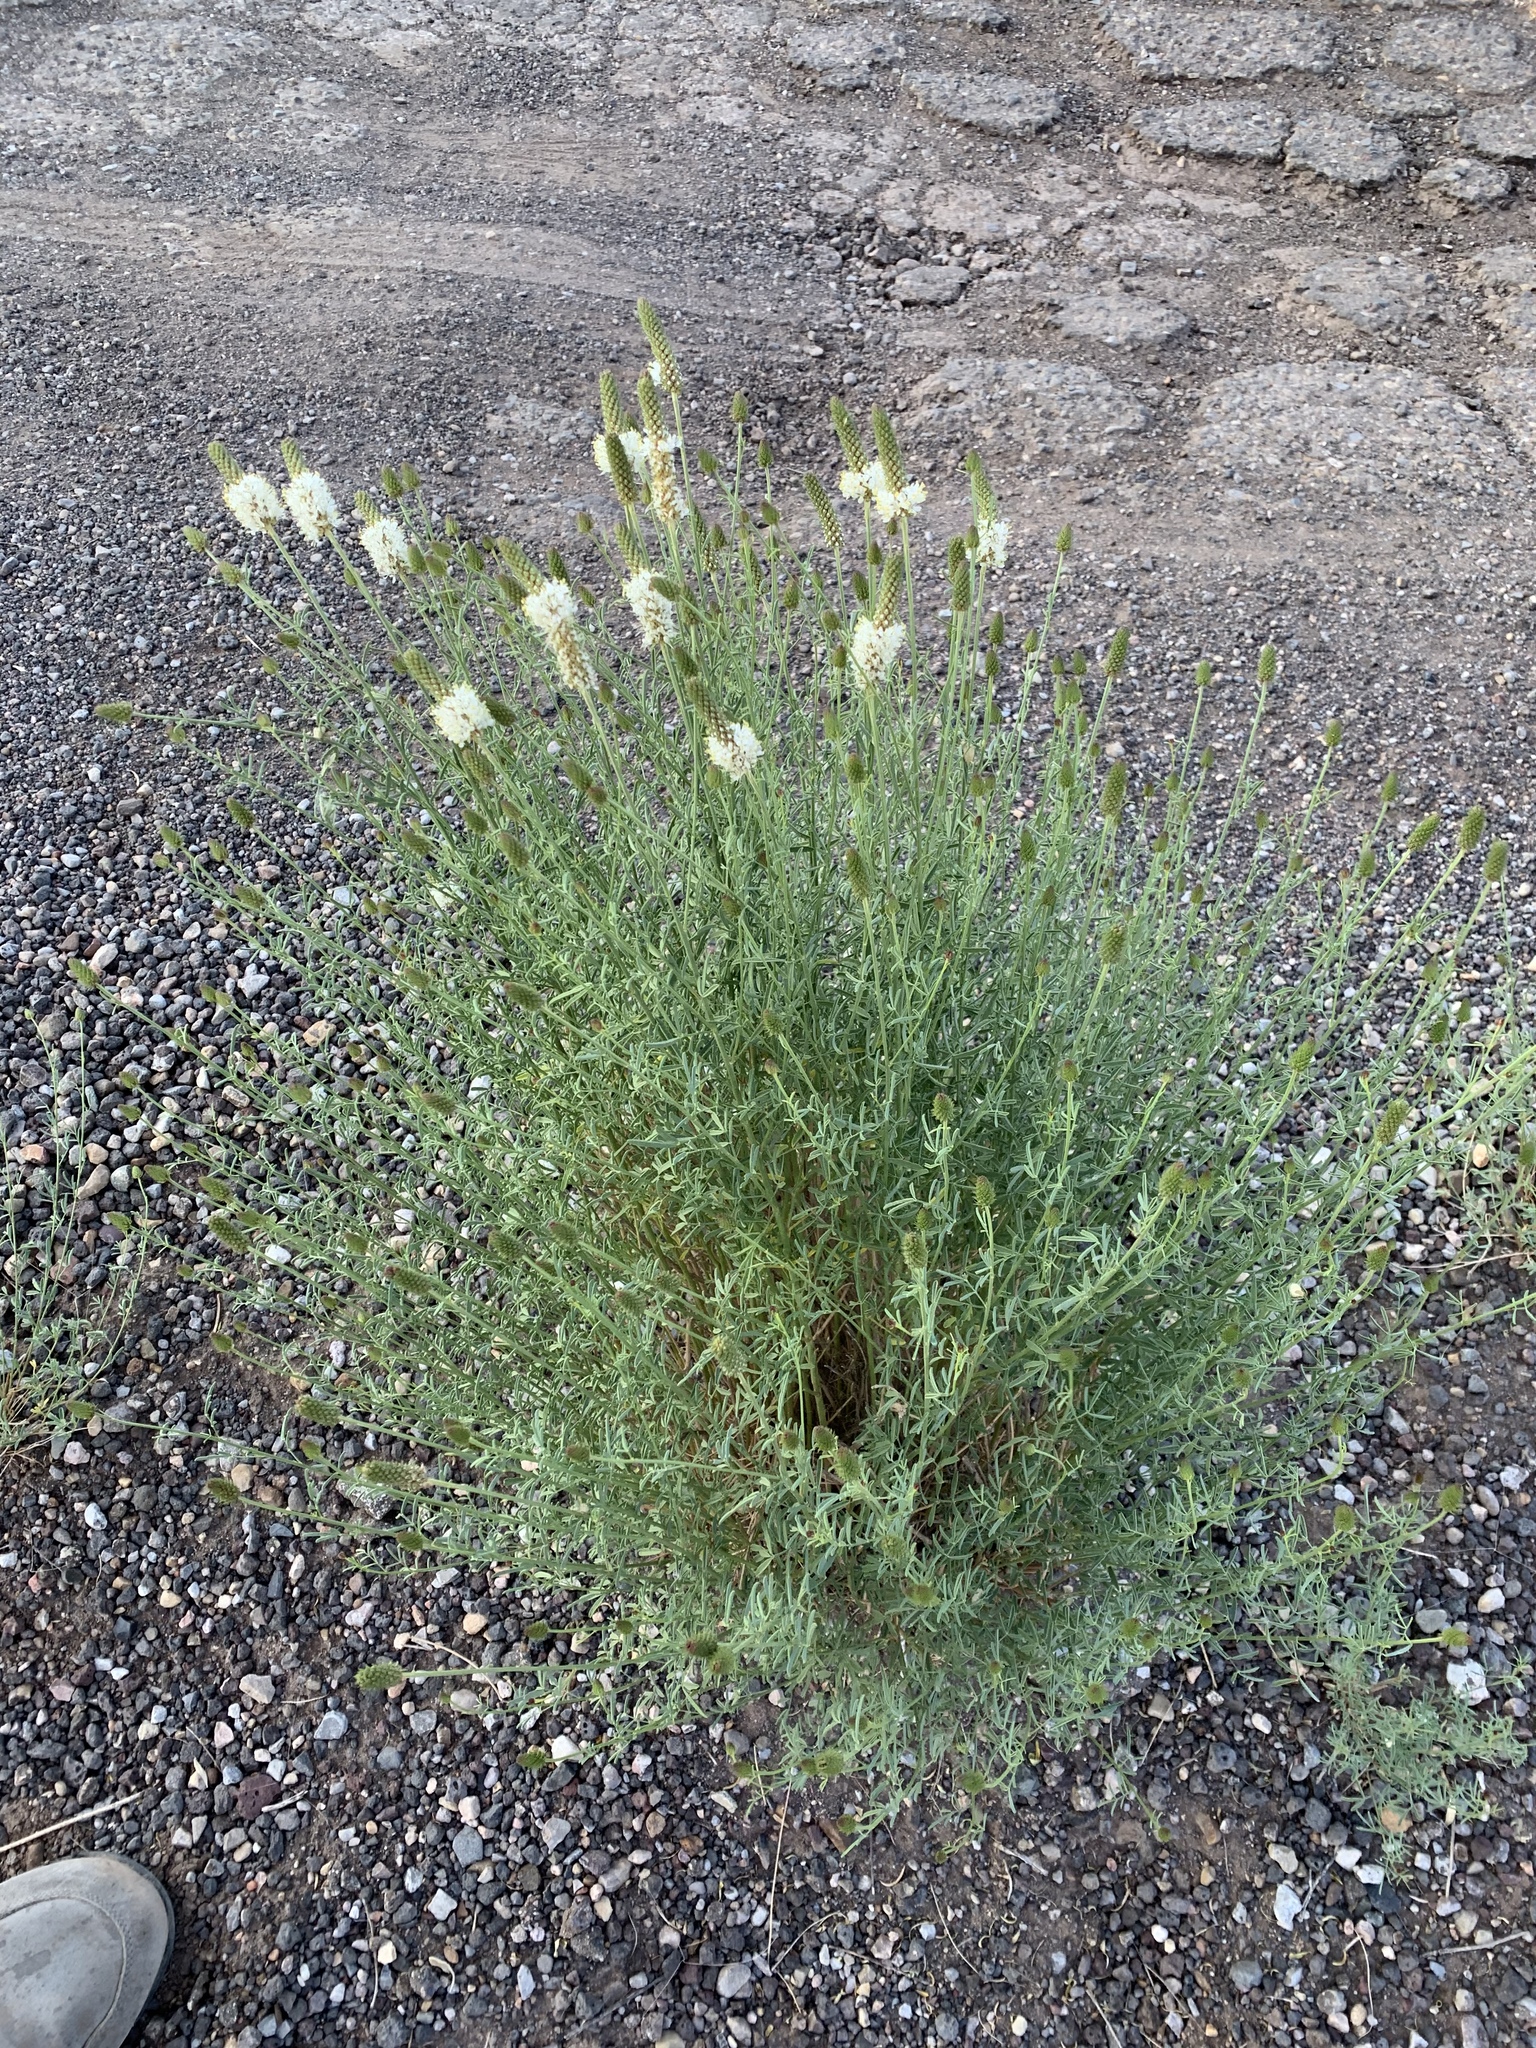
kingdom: Plantae
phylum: Tracheophyta
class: Magnoliopsida
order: Fabales
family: Fabaceae
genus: Dalea
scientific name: Dalea candida
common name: White prairie-clover
